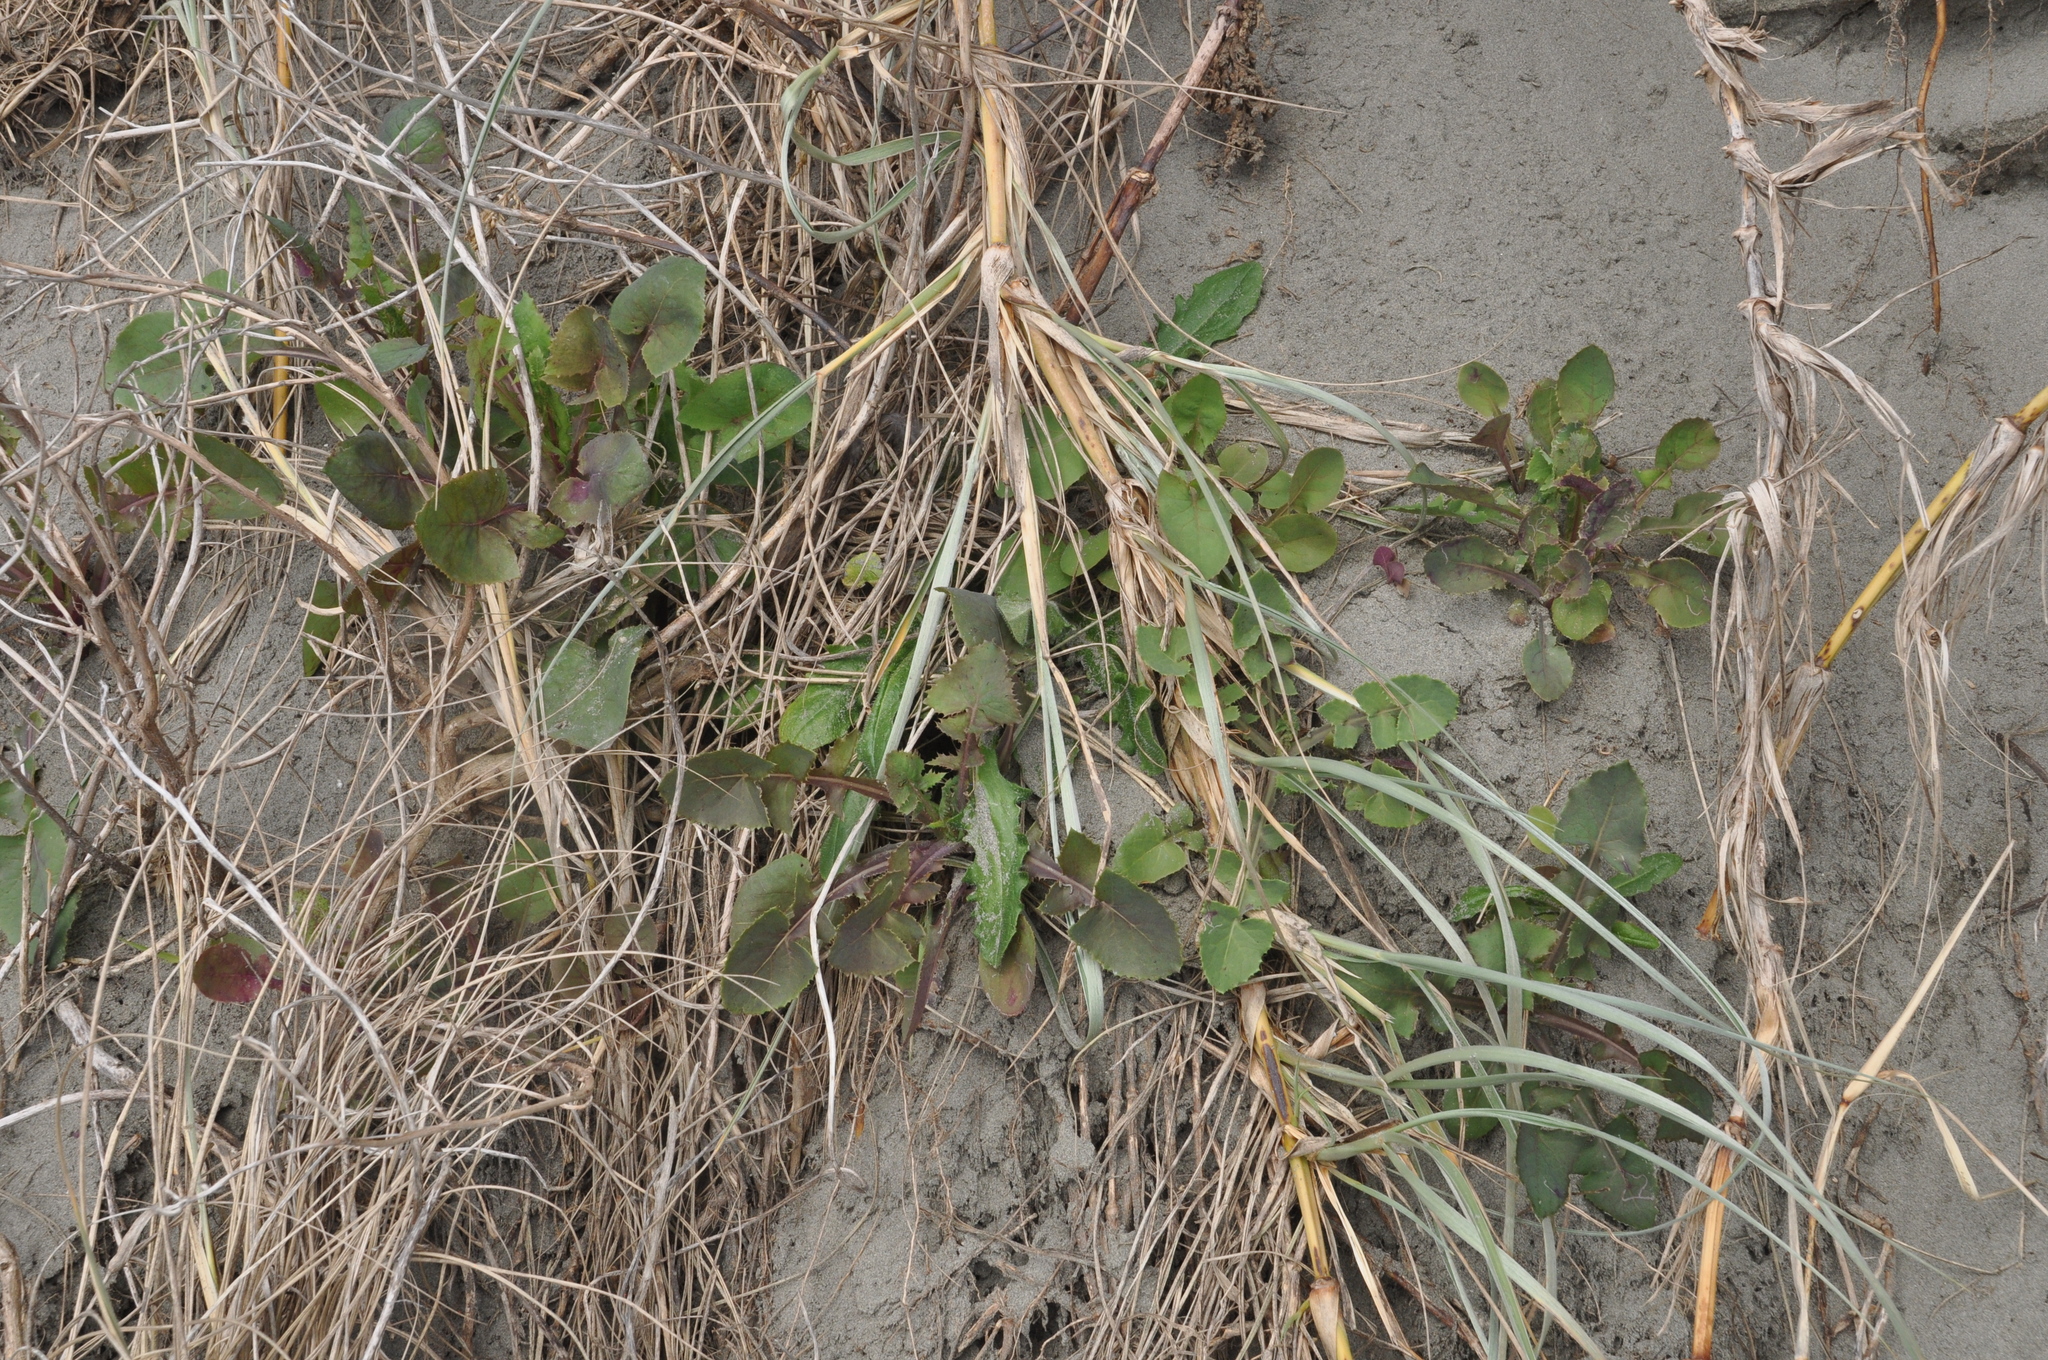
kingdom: Plantae
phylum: Tracheophyta
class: Magnoliopsida
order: Asterales
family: Asteraceae
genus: Sonchus
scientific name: Sonchus oleraceus
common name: Common sowthistle
